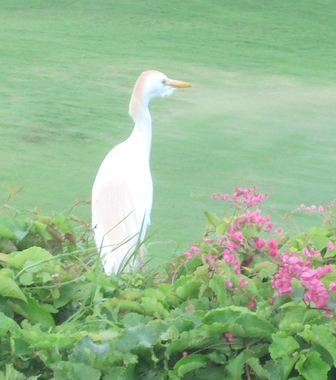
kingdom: Animalia
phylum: Chordata
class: Aves
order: Pelecaniformes
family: Ardeidae
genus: Bubulcus
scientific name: Bubulcus ibis
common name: Cattle egret
